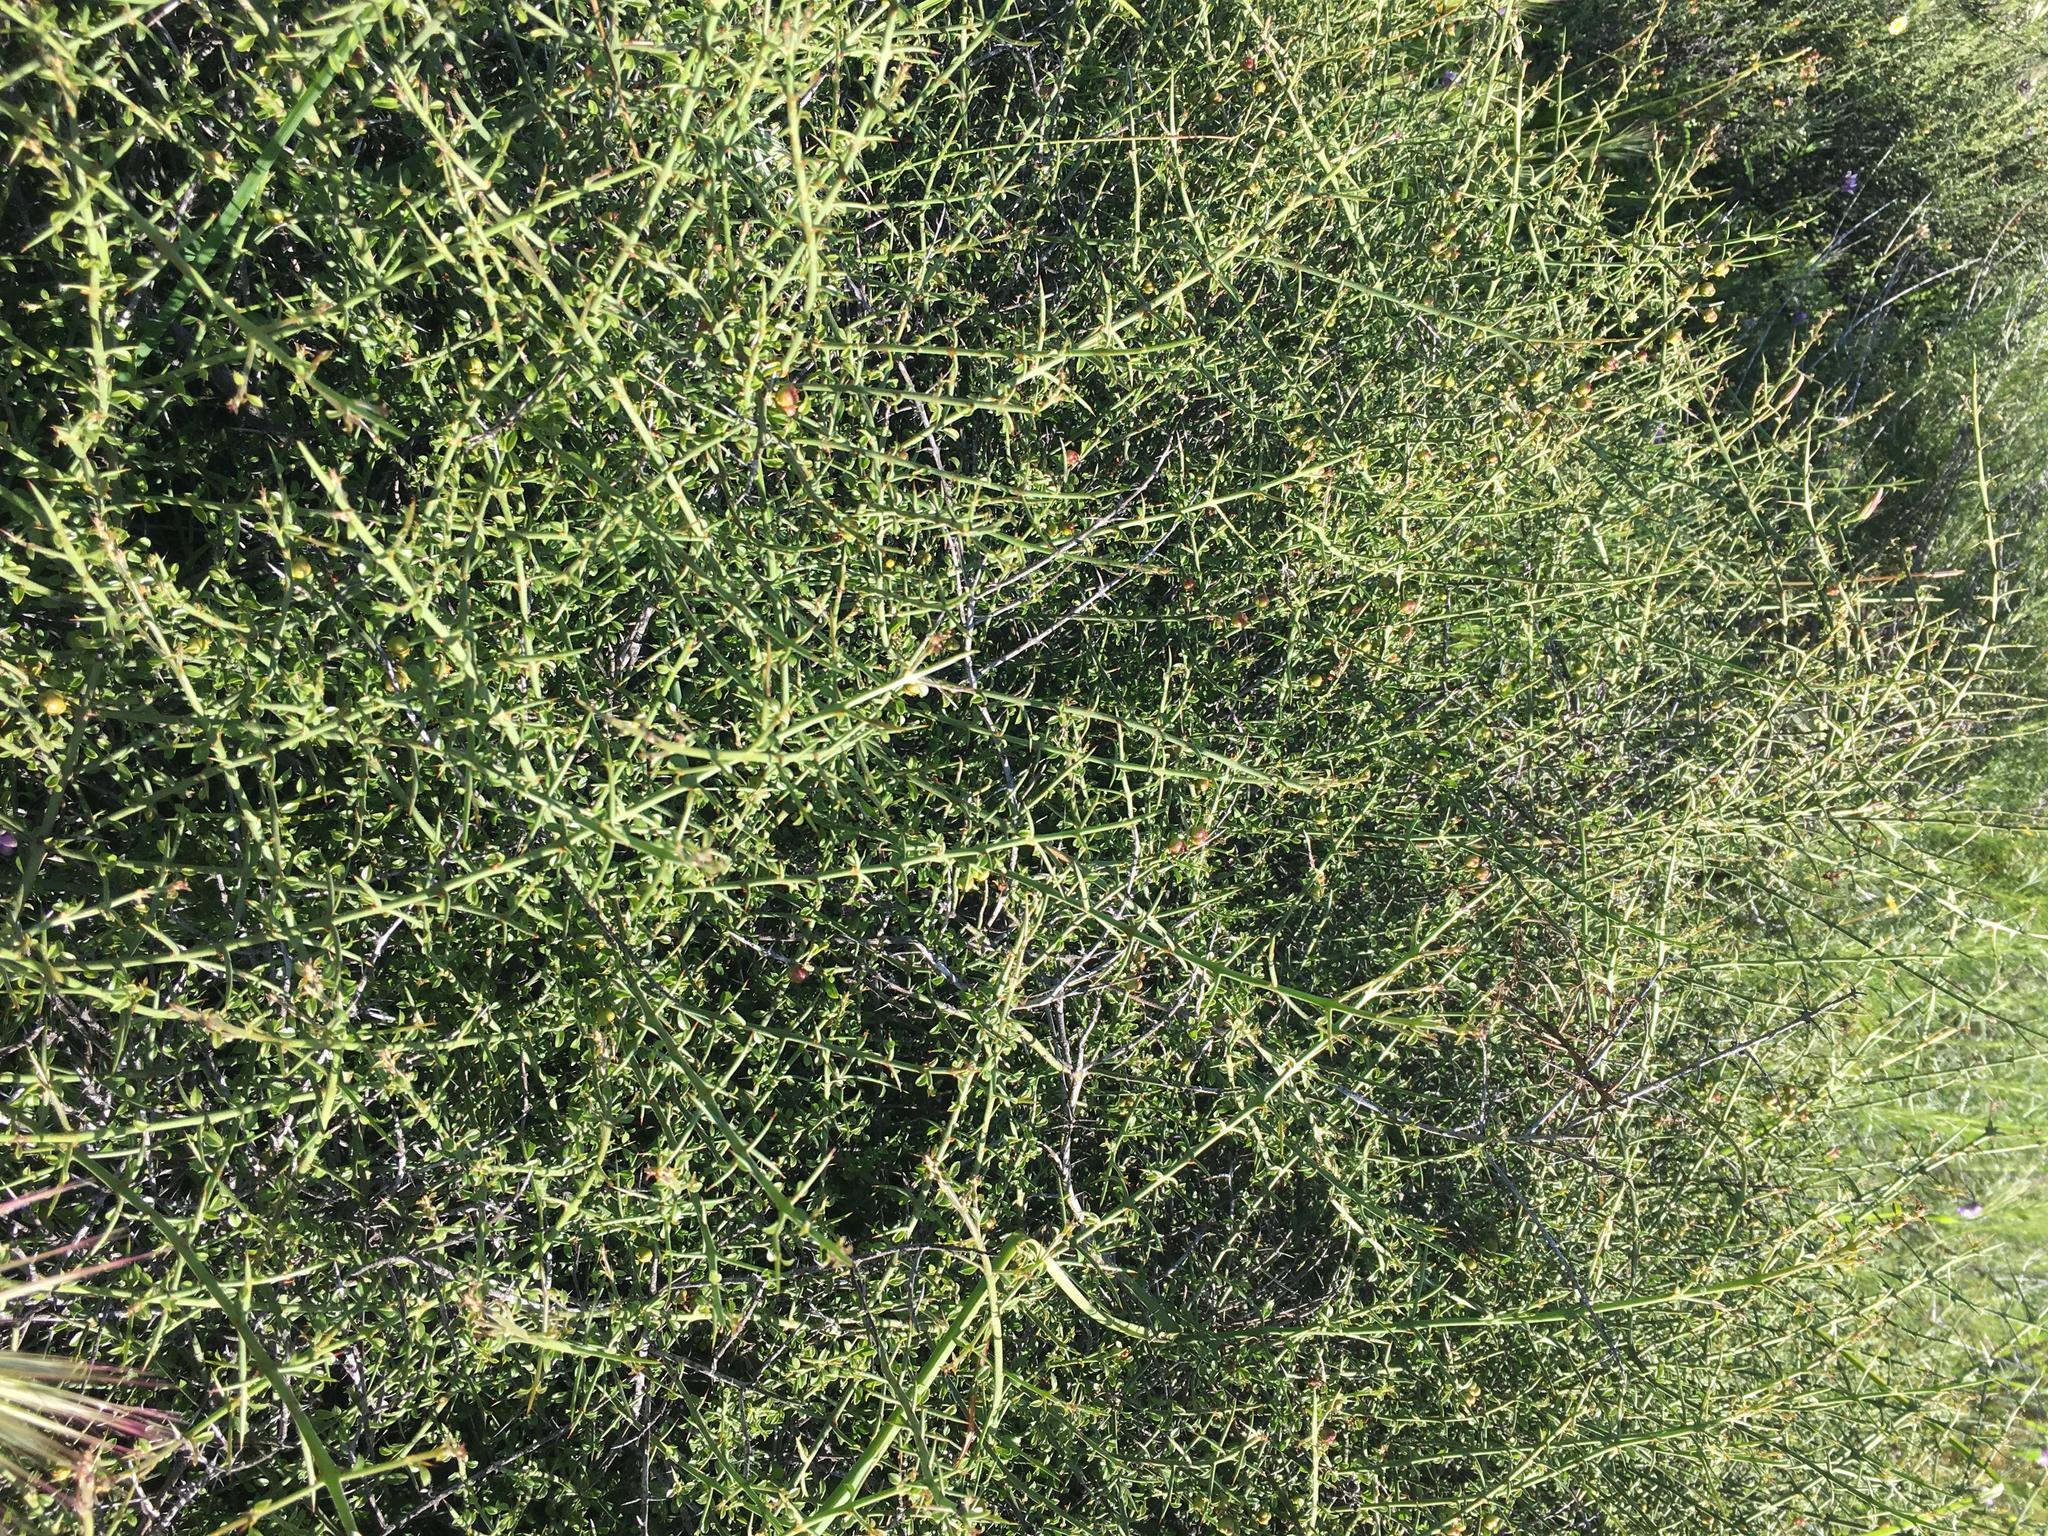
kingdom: Plantae
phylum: Tracheophyta
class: Magnoliopsida
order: Rosales
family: Rhamnaceae
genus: Adolphia
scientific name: Adolphia californica
